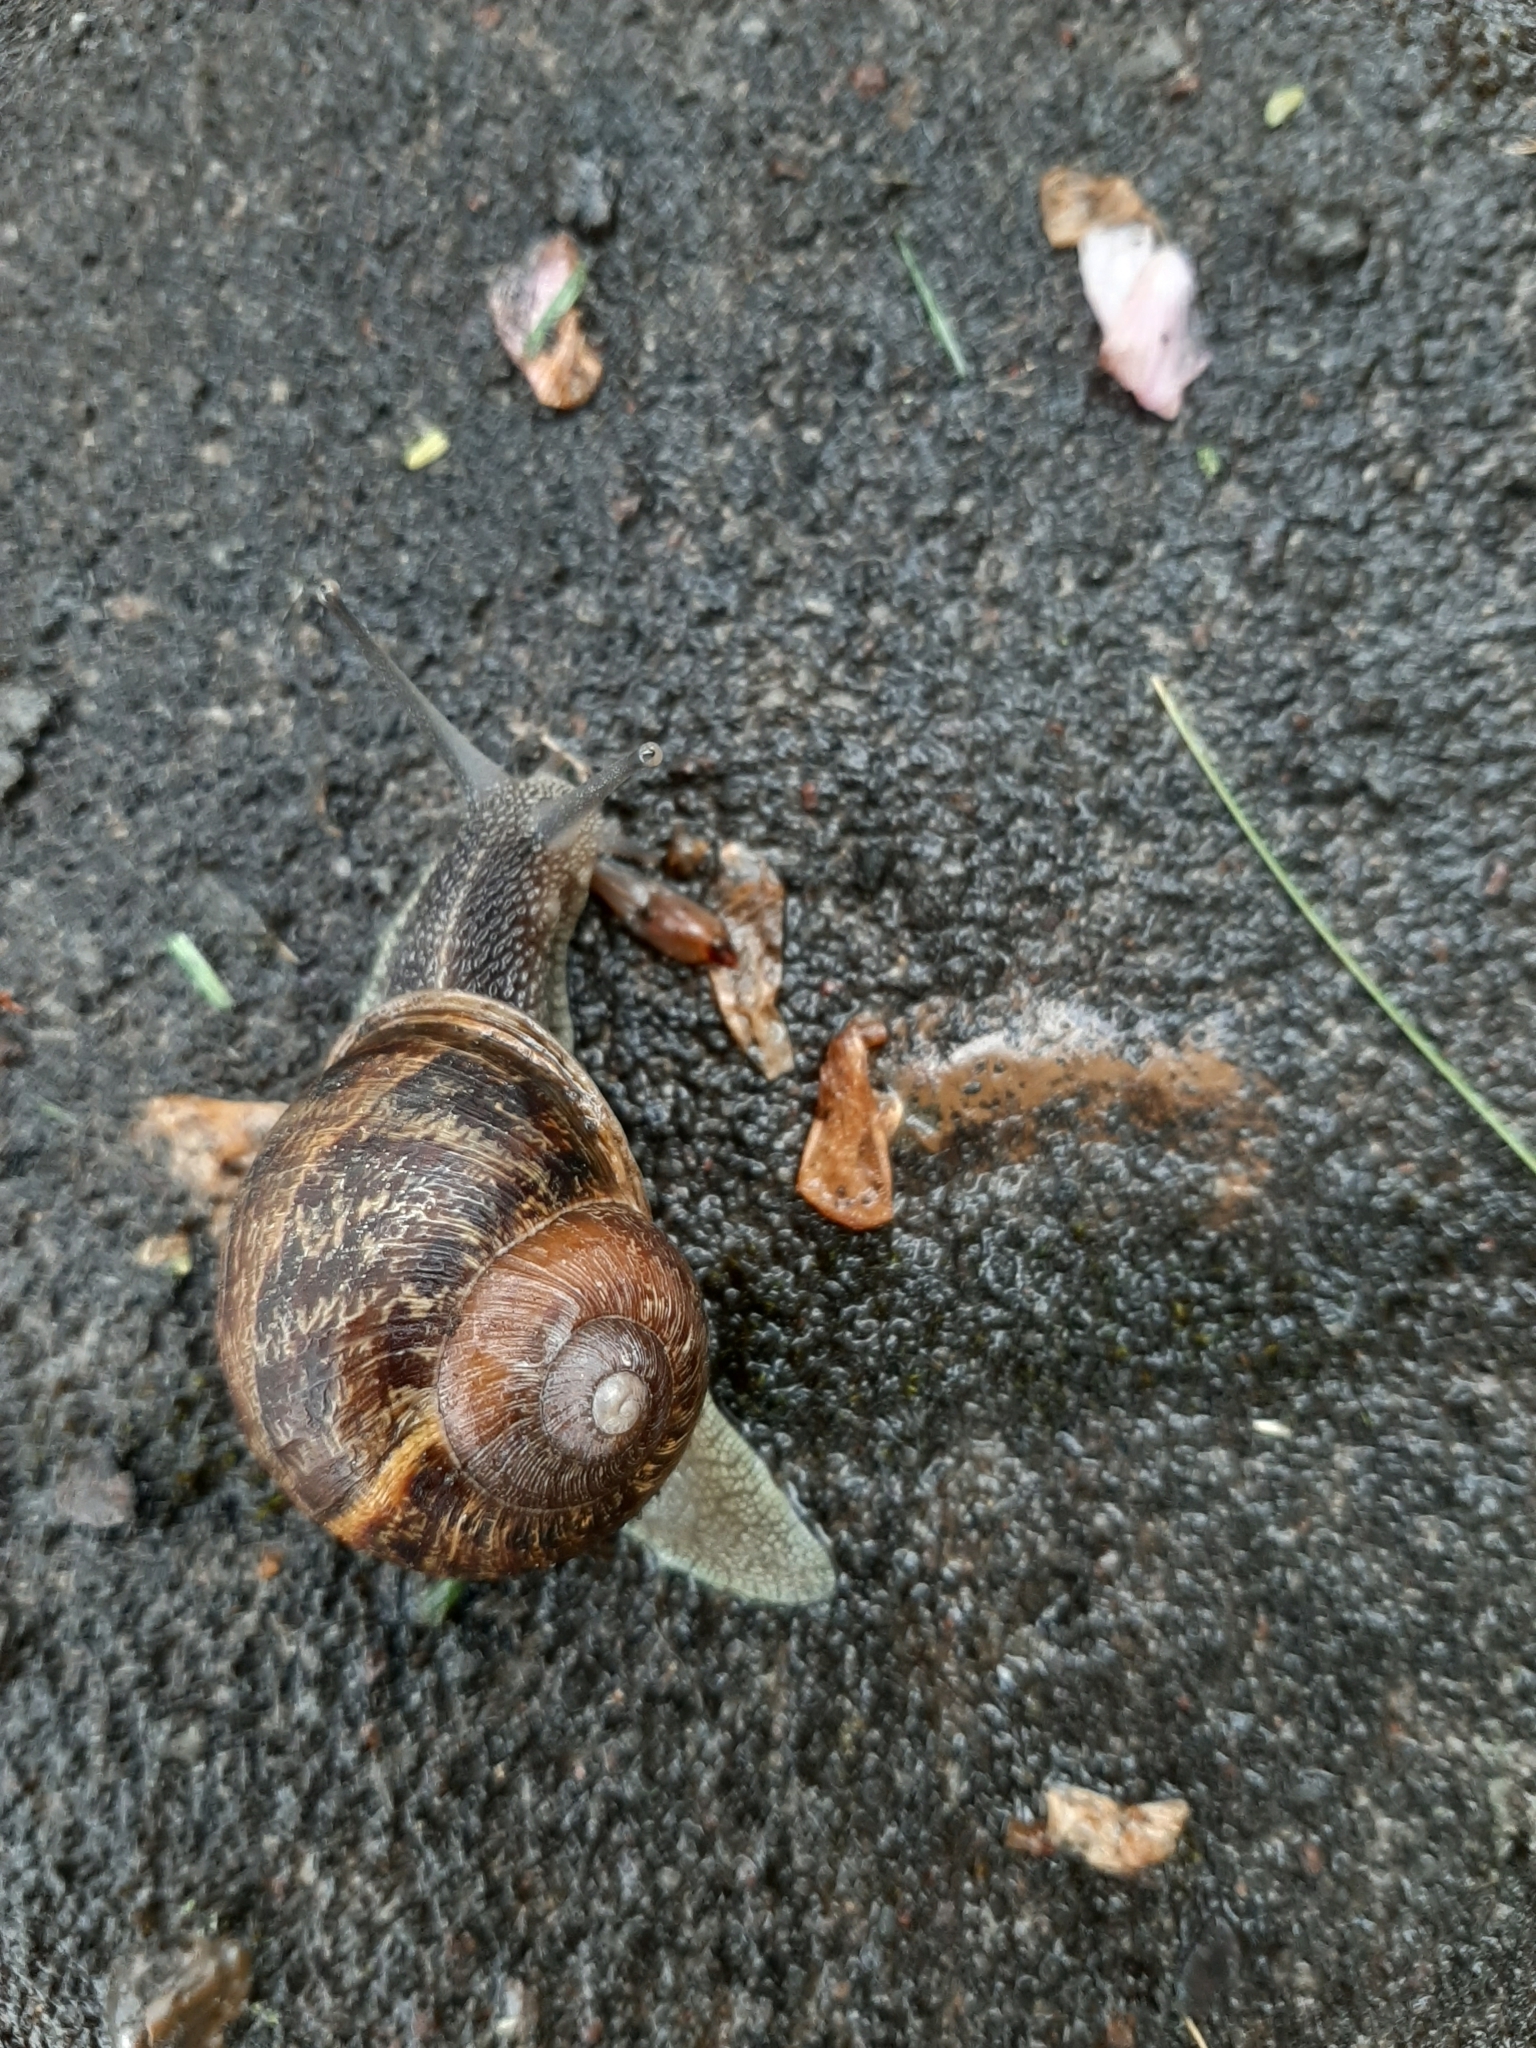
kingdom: Animalia
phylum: Mollusca
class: Gastropoda
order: Stylommatophora
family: Helicidae
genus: Cornu
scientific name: Cornu aspersum
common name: Brown garden snail
